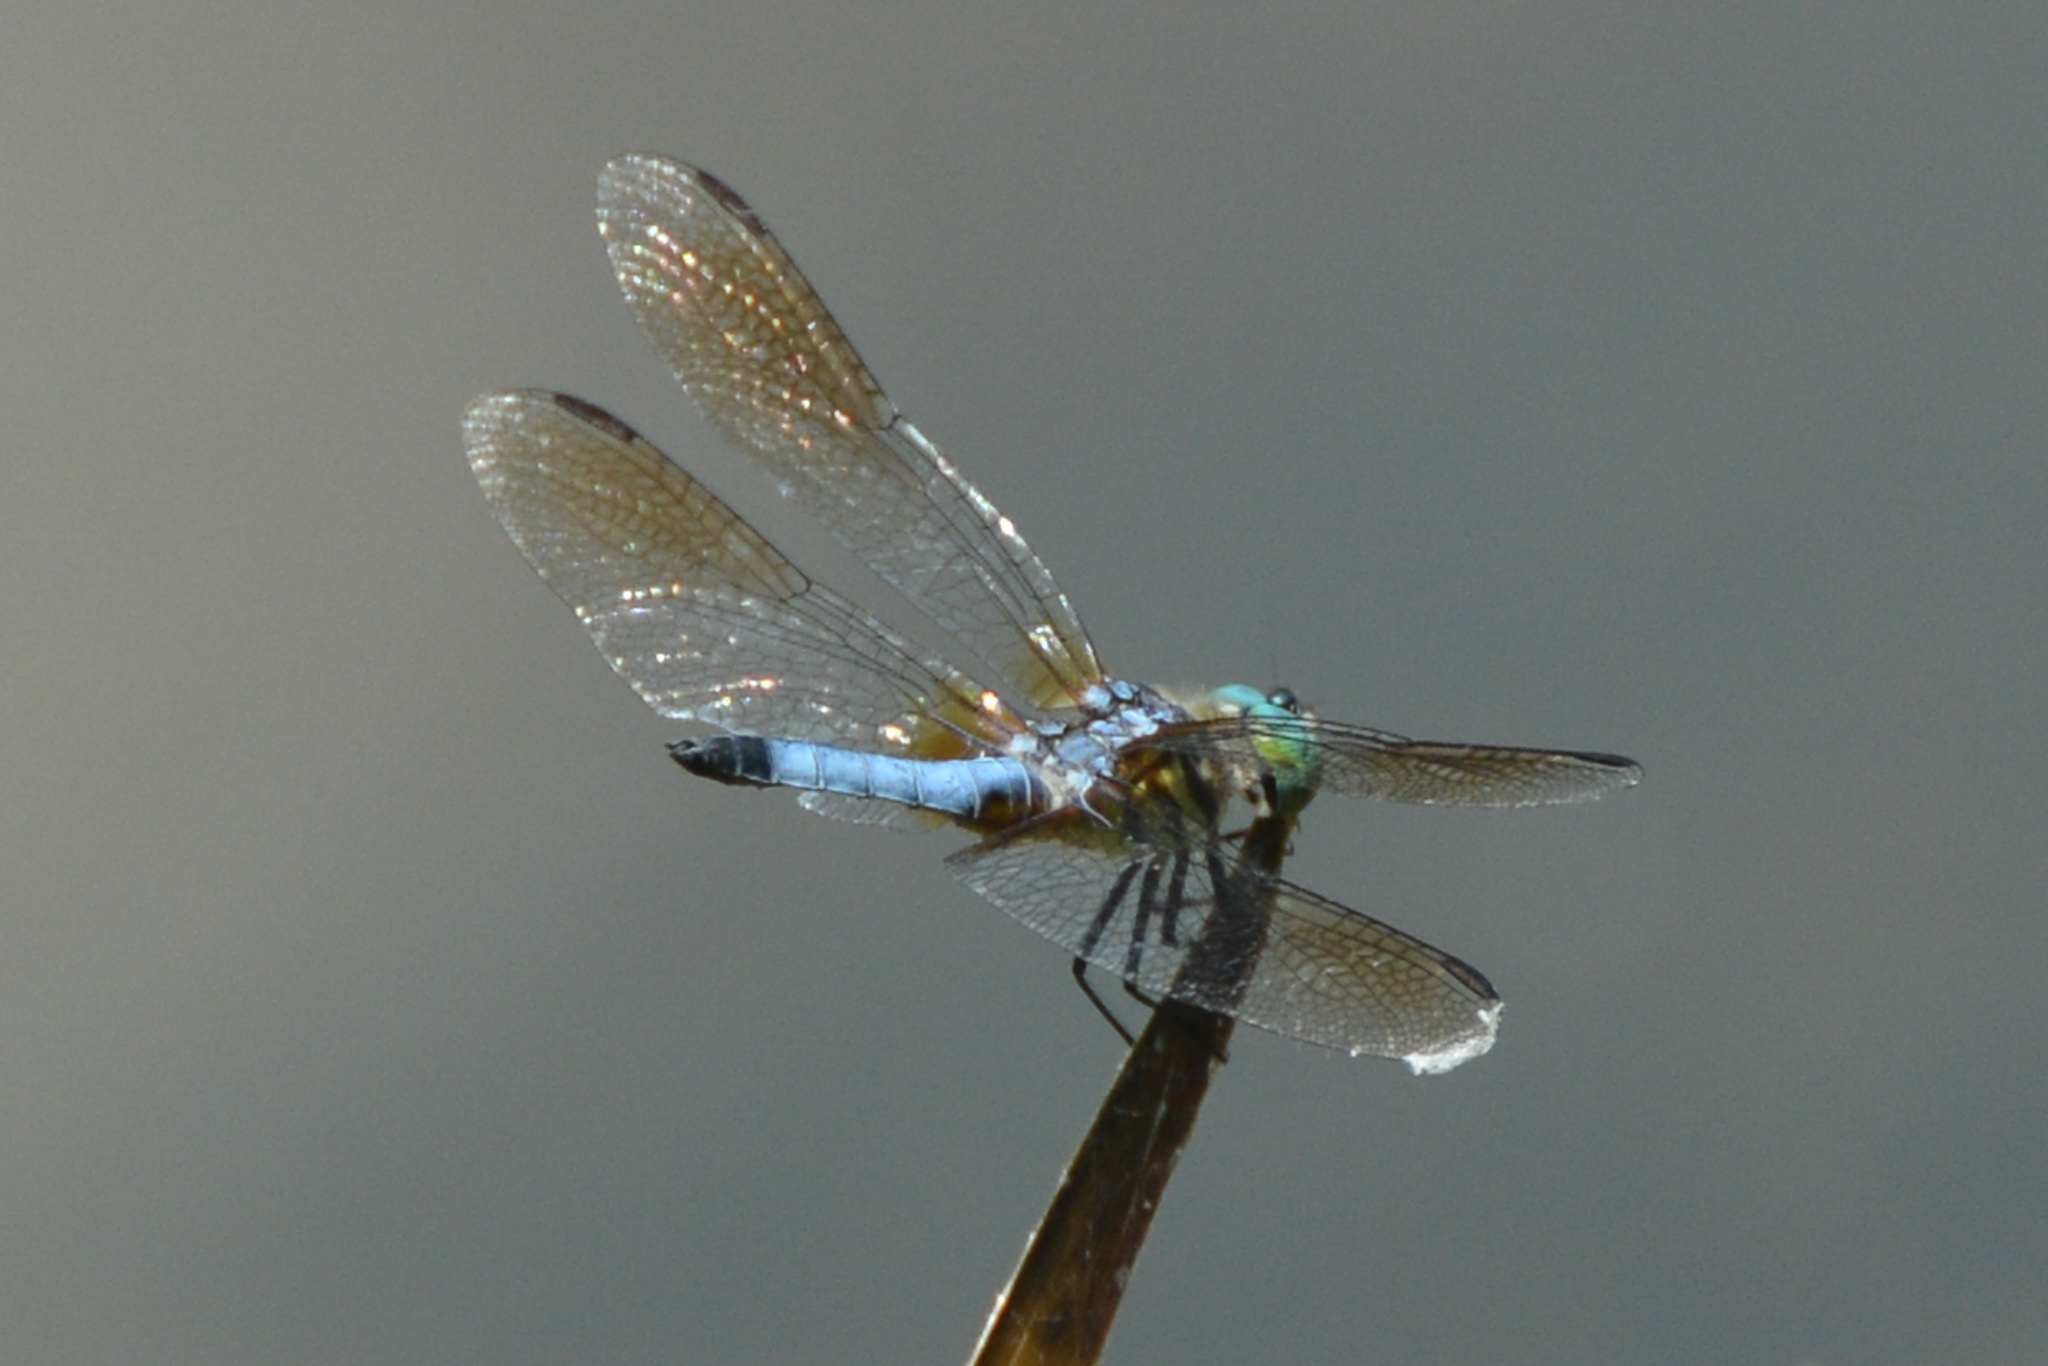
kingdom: Animalia
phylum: Arthropoda
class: Insecta
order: Odonata
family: Libellulidae
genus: Pachydiplax
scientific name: Pachydiplax longipennis
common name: Blue dasher
